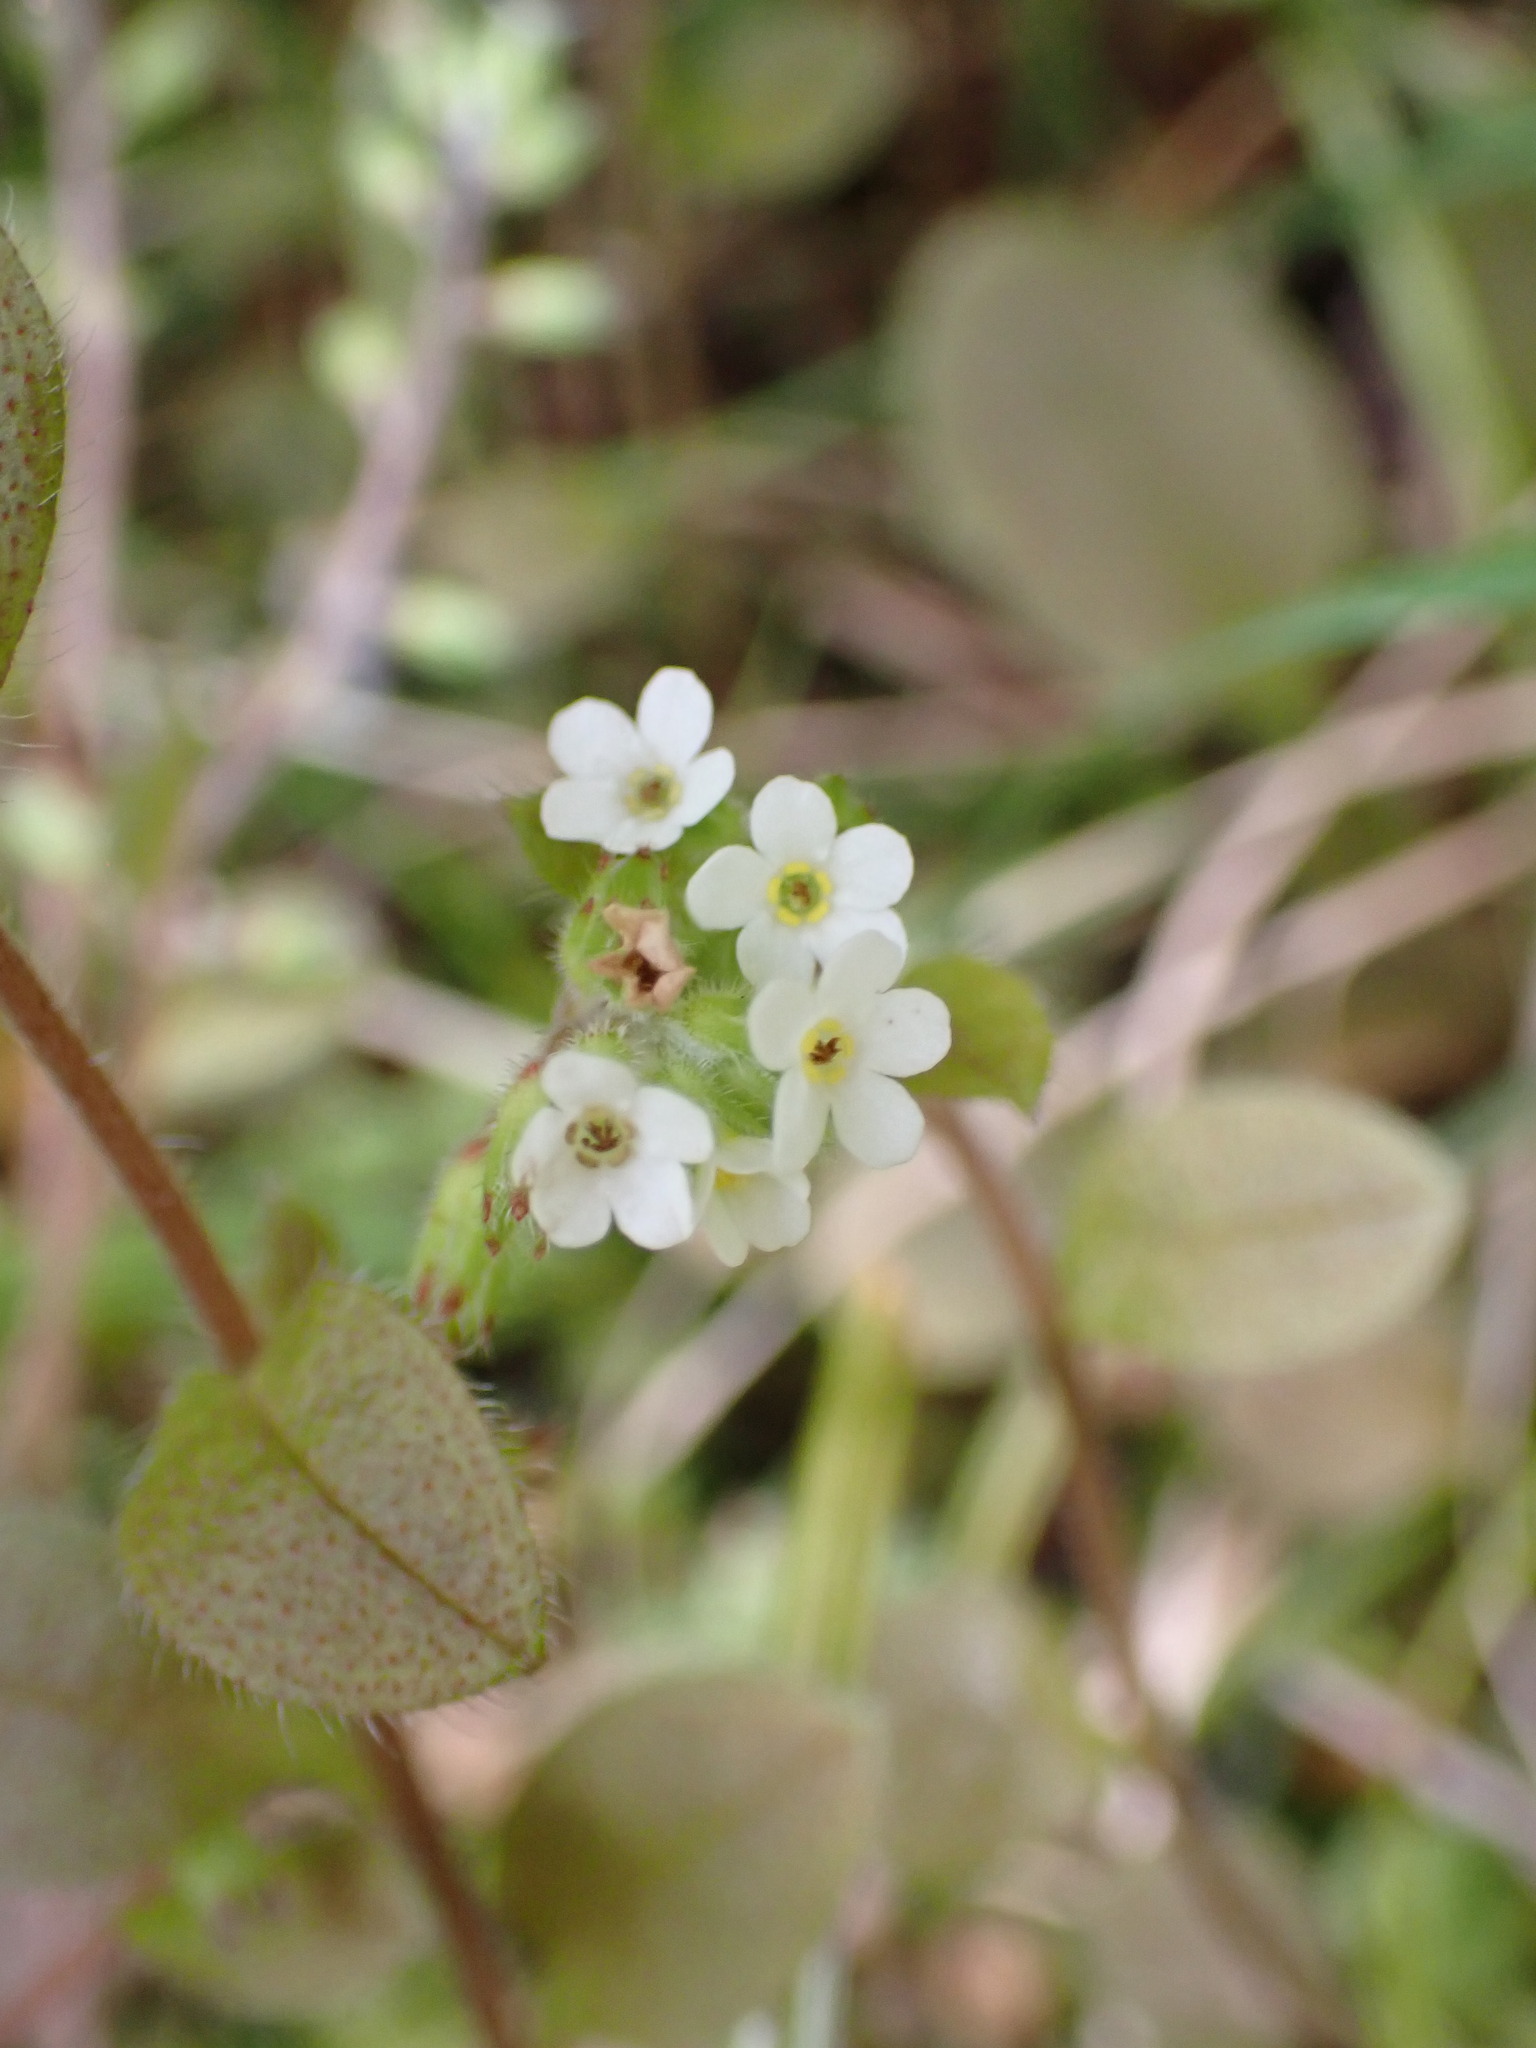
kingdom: Plantae
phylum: Tracheophyta
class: Magnoliopsida
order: Boraginales
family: Boraginaceae
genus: Myosotis
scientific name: Myosotis forsteri
